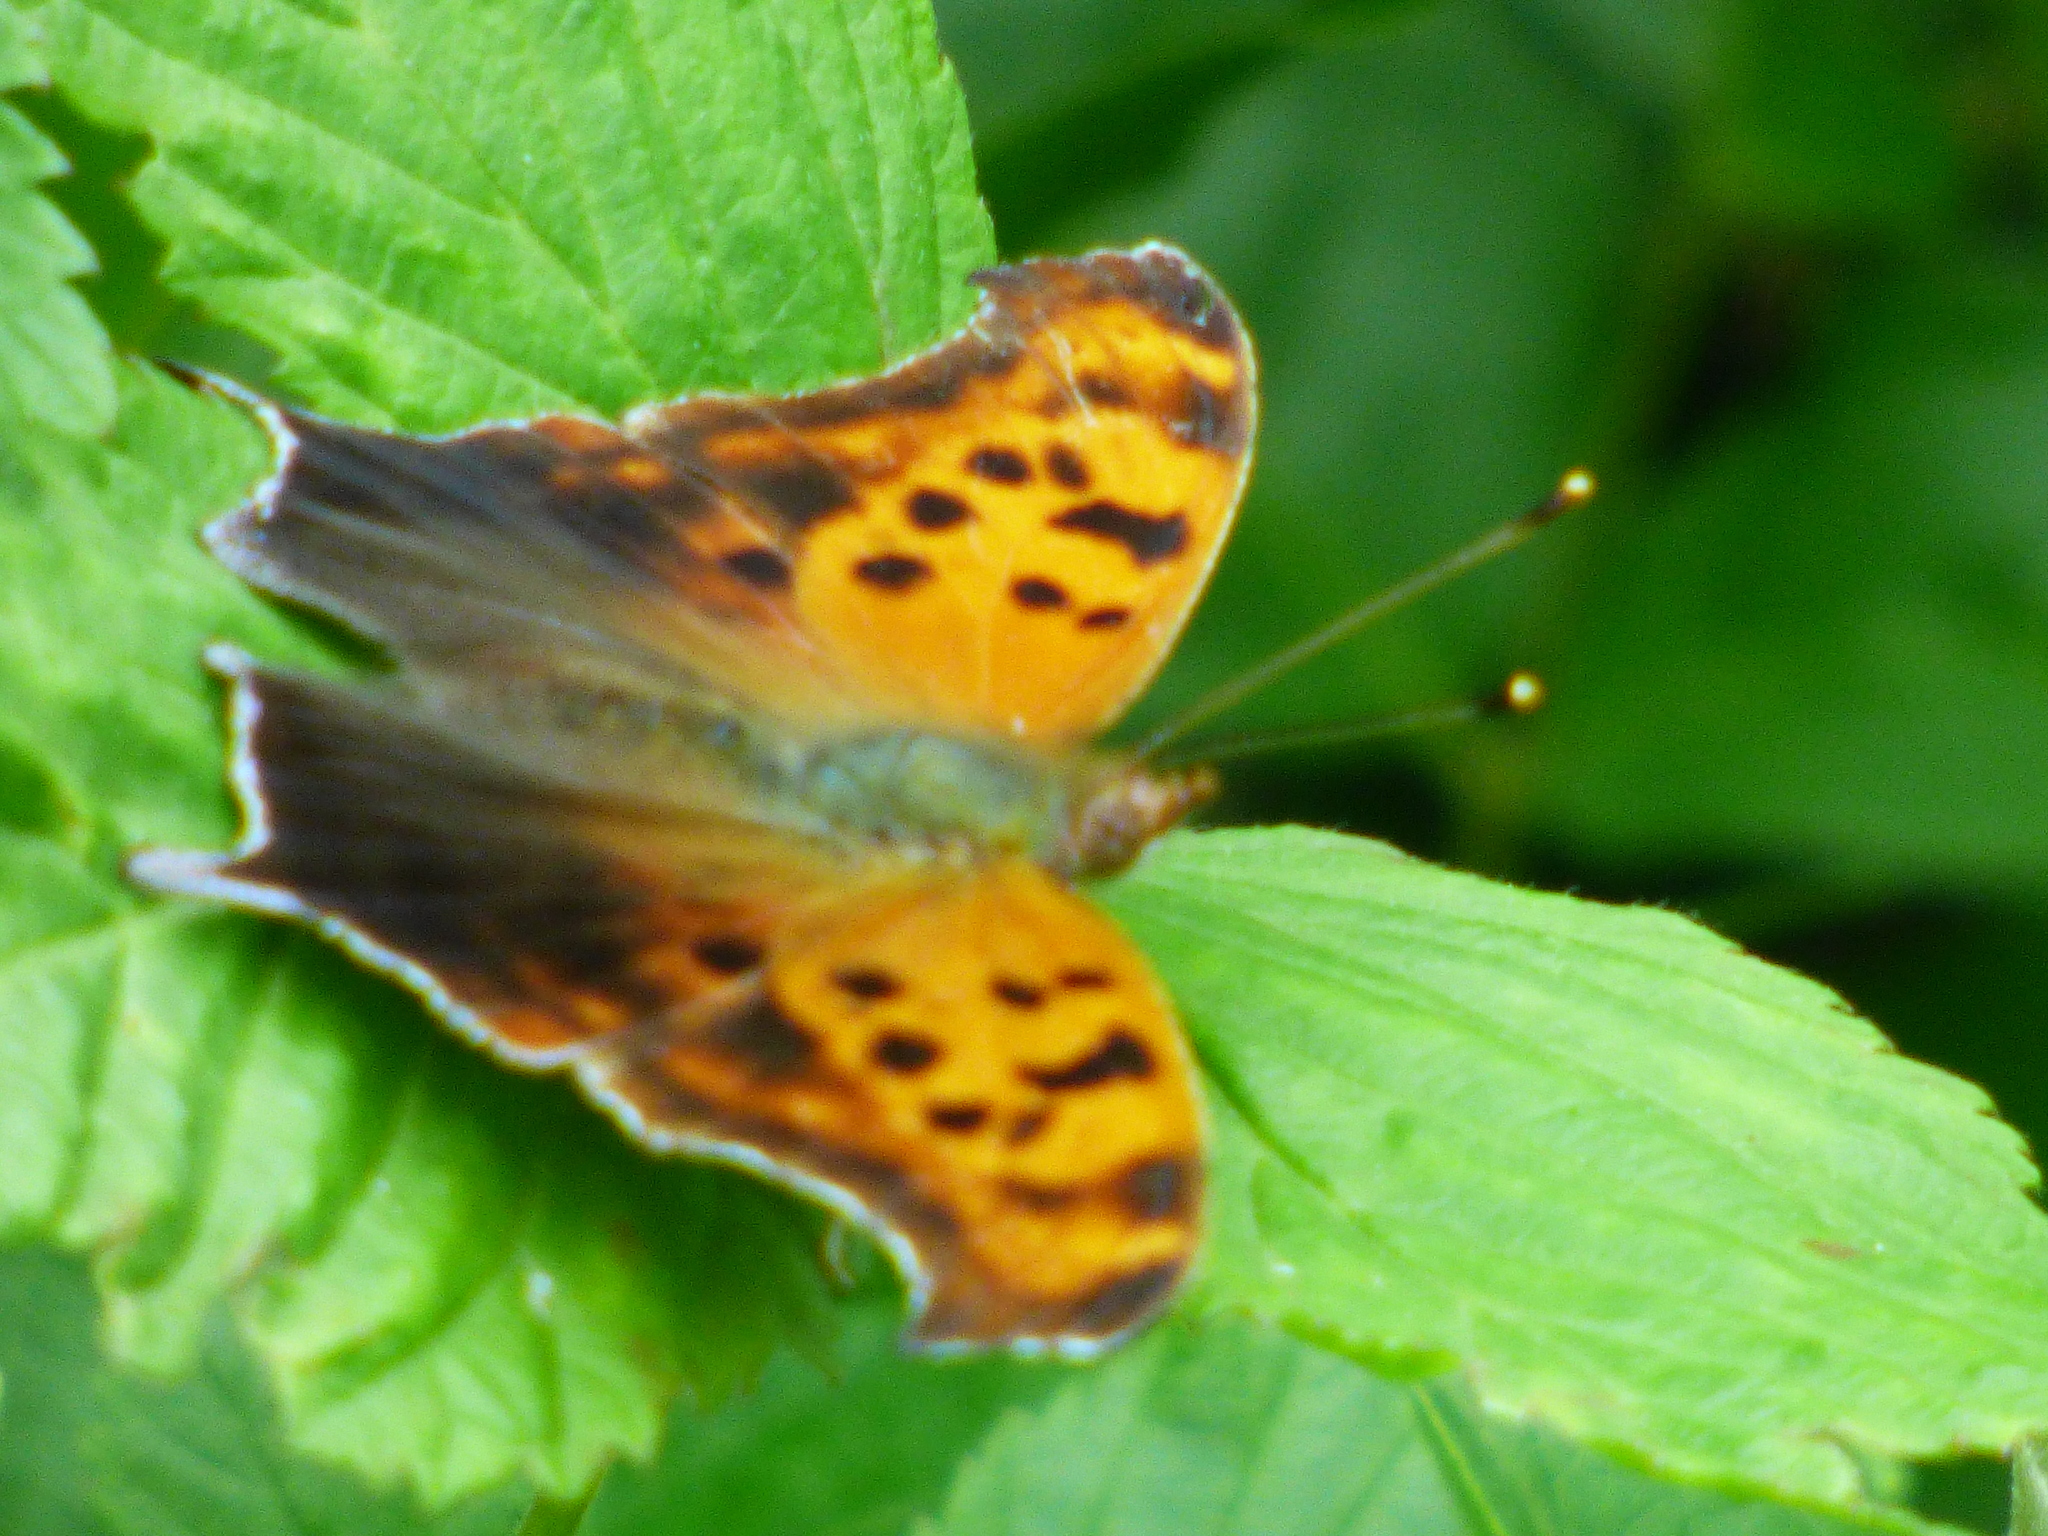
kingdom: Animalia
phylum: Arthropoda
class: Insecta
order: Lepidoptera
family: Nymphalidae
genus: Polygonia
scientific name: Polygonia interrogationis
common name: Question mark
